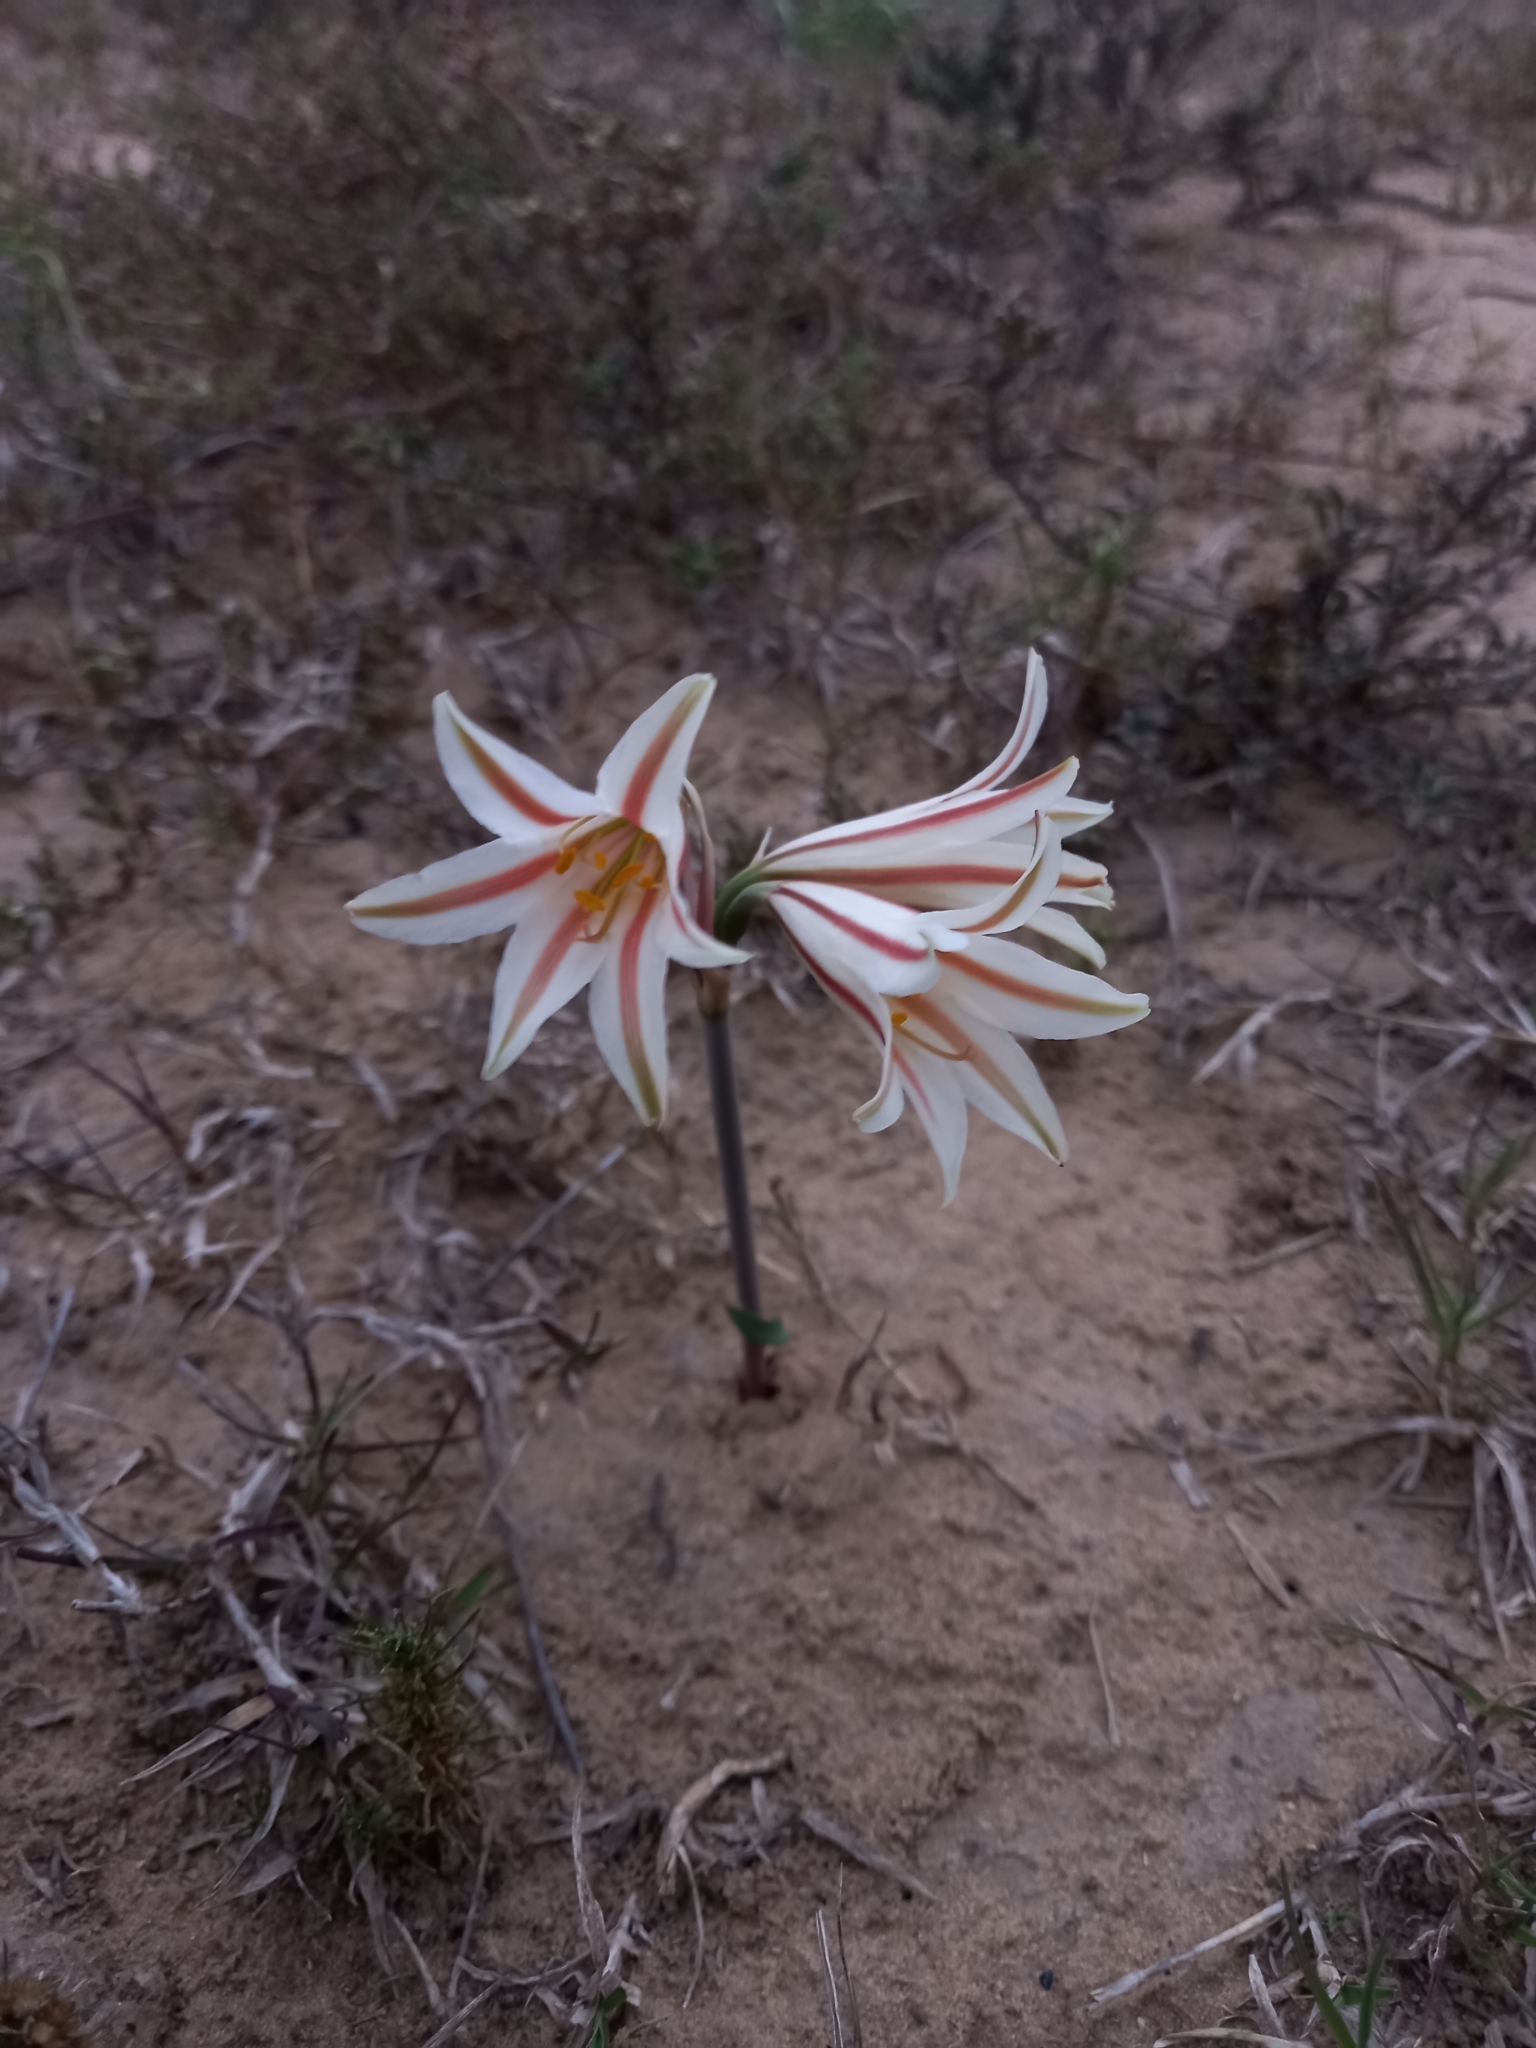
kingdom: Plantae
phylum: Tracheophyta
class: Liliopsida
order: Asparagales
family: Amaryllidaceae
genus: Cyrtanthus
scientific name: Cyrtanthus smithiae
